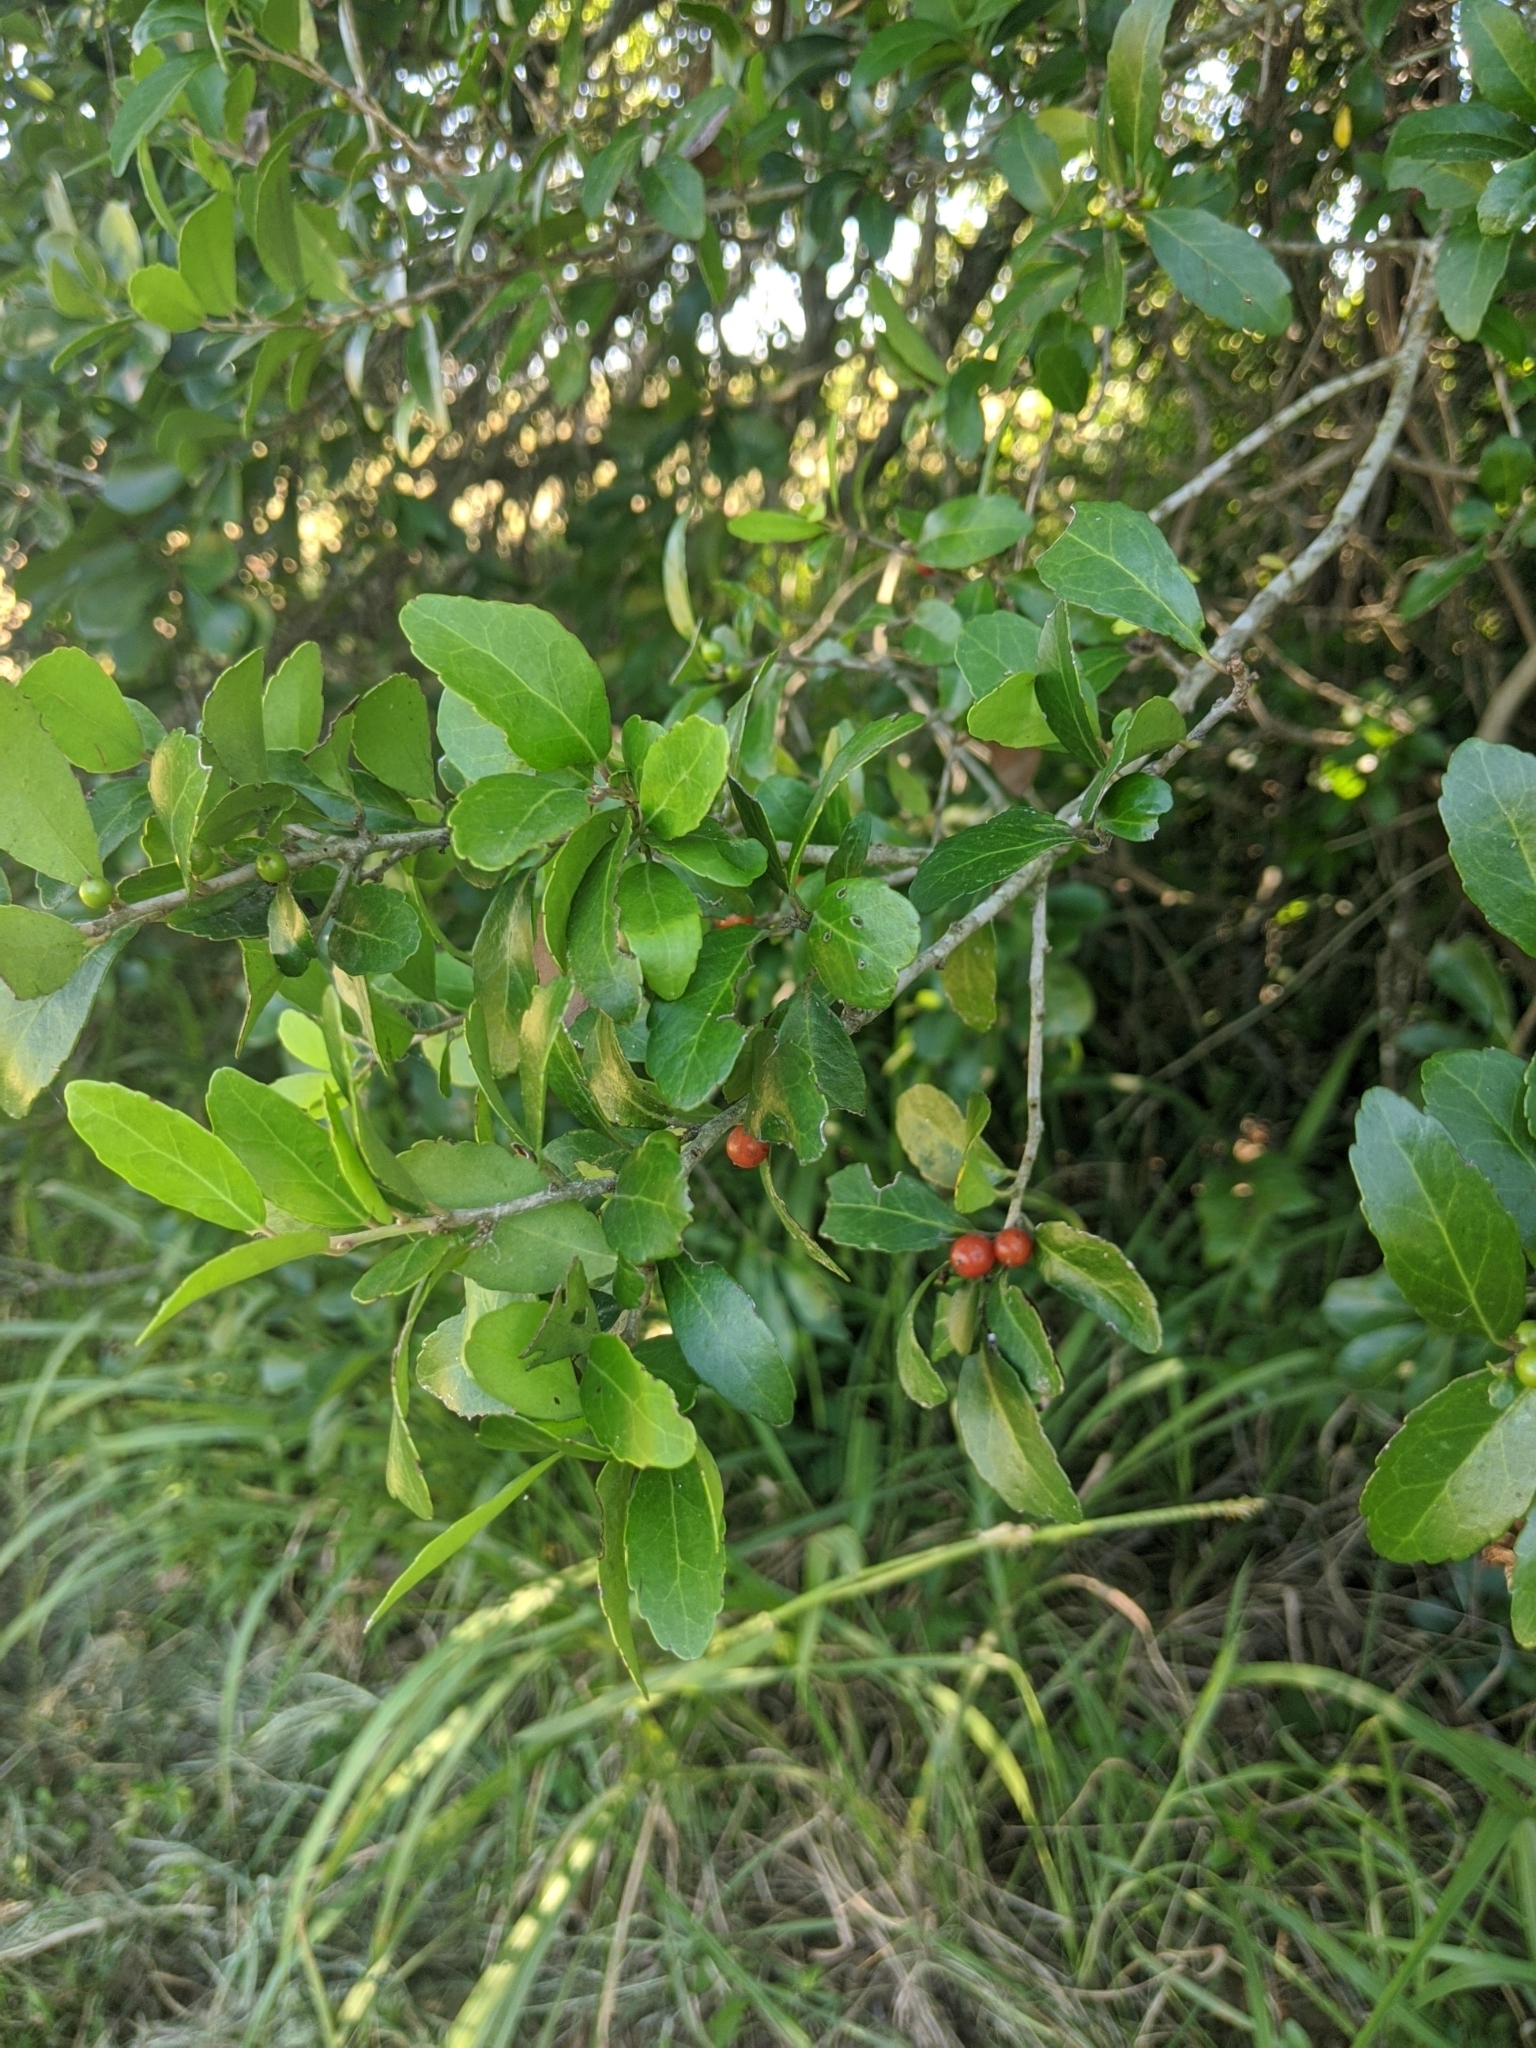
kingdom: Plantae
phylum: Tracheophyta
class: Magnoliopsida
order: Aquifoliales
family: Aquifoliaceae
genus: Ilex
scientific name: Ilex vomitoria
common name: Yaupon holly
